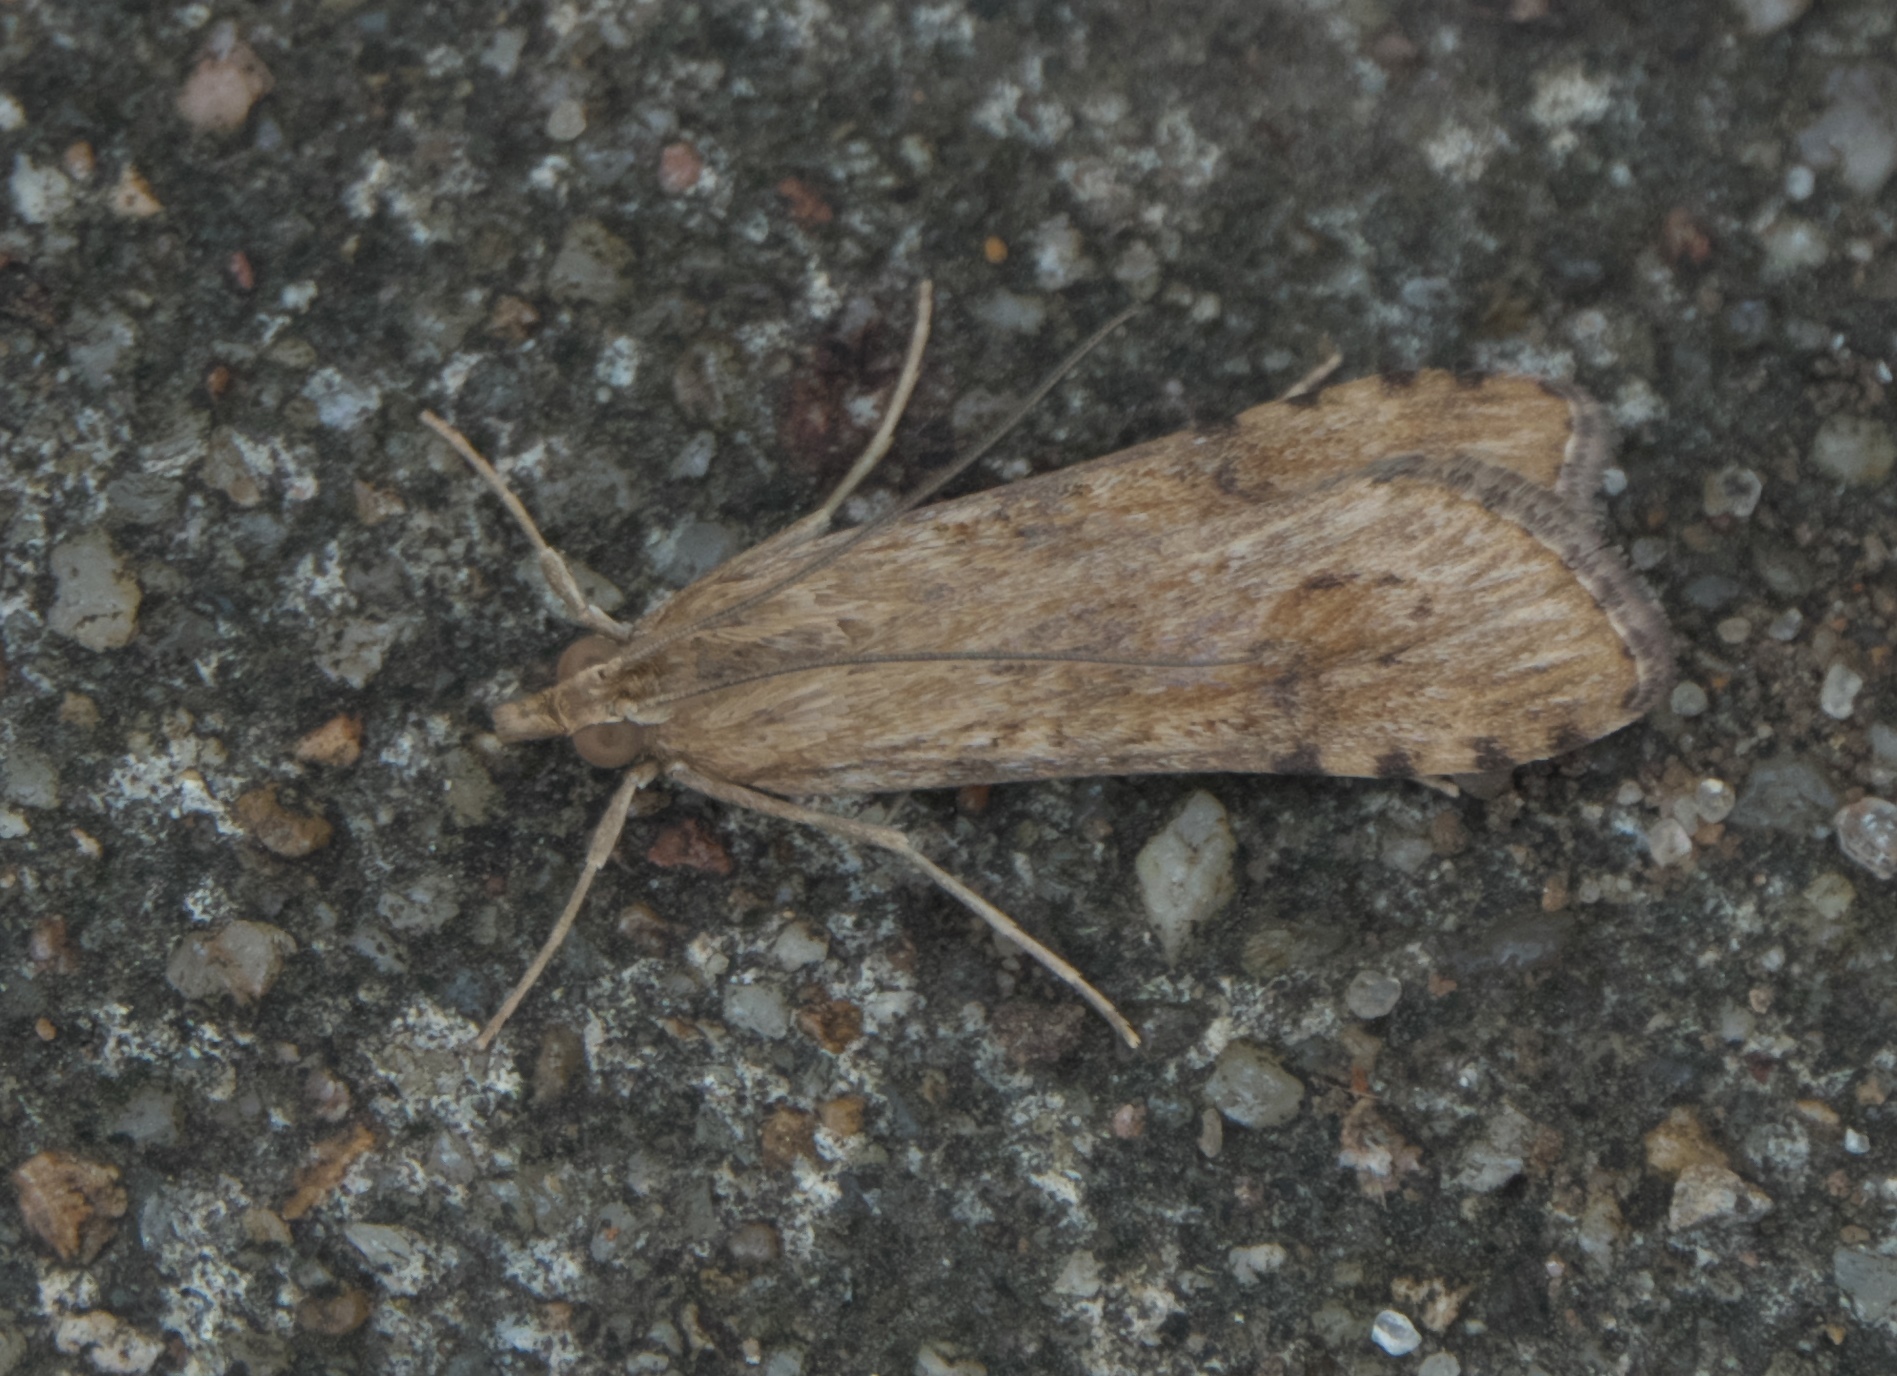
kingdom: Animalia
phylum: Arthropoda
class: Insecta
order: Lepidoptera
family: Crambidae
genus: Nomophila
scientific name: Nomophila nearctica
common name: American rush veneer
